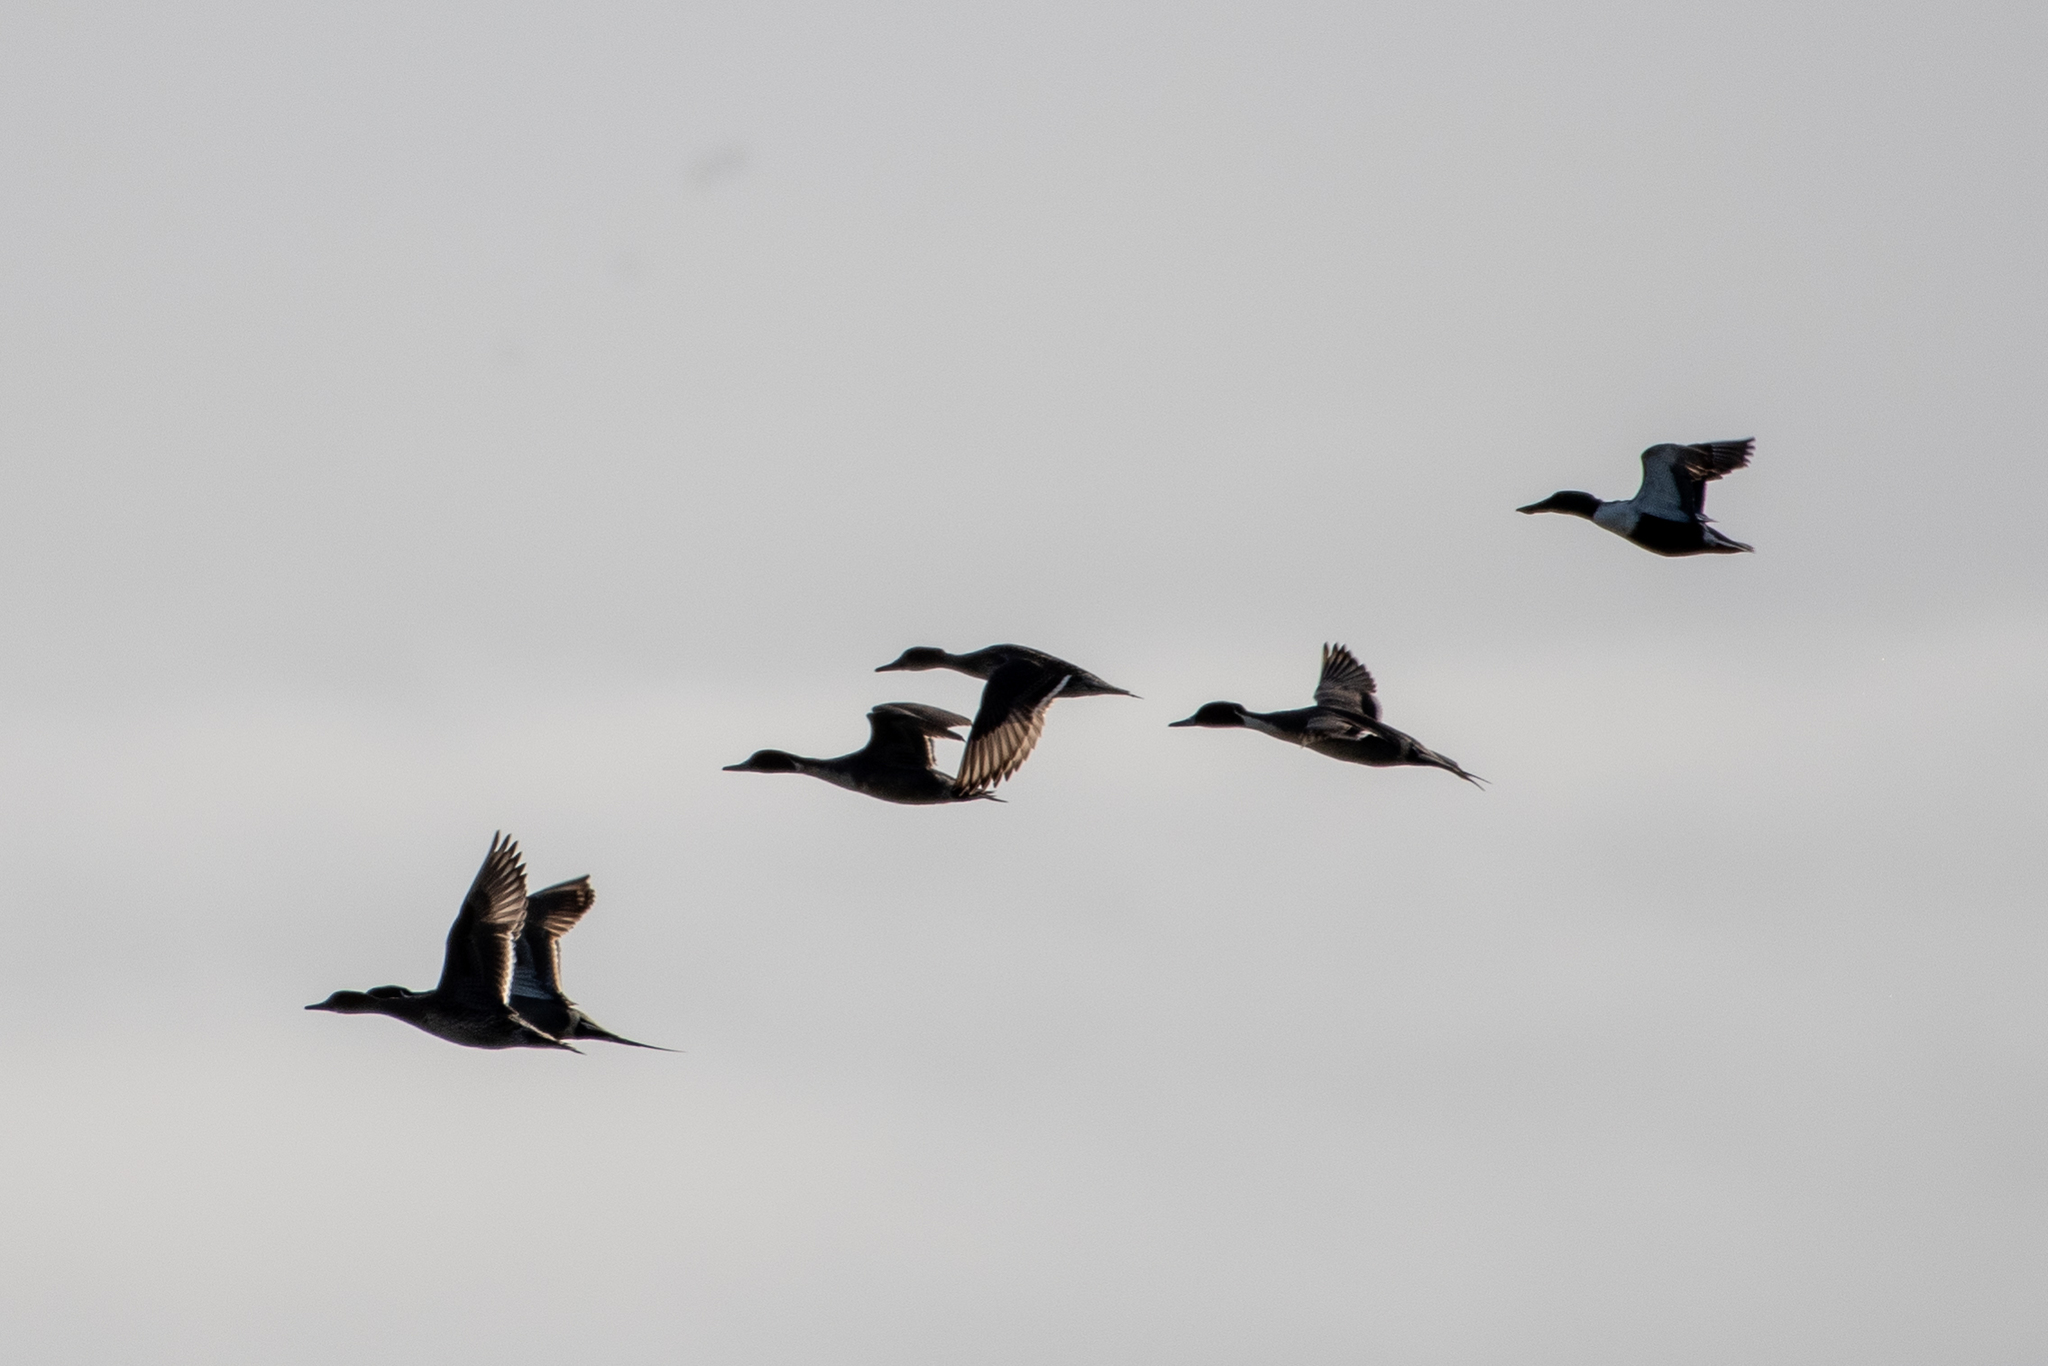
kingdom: Animalia
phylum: Chordata
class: Aves
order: Anseriformes
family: Anatidae
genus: Spatula
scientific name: Spatula clypeata
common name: Northern shoveler
